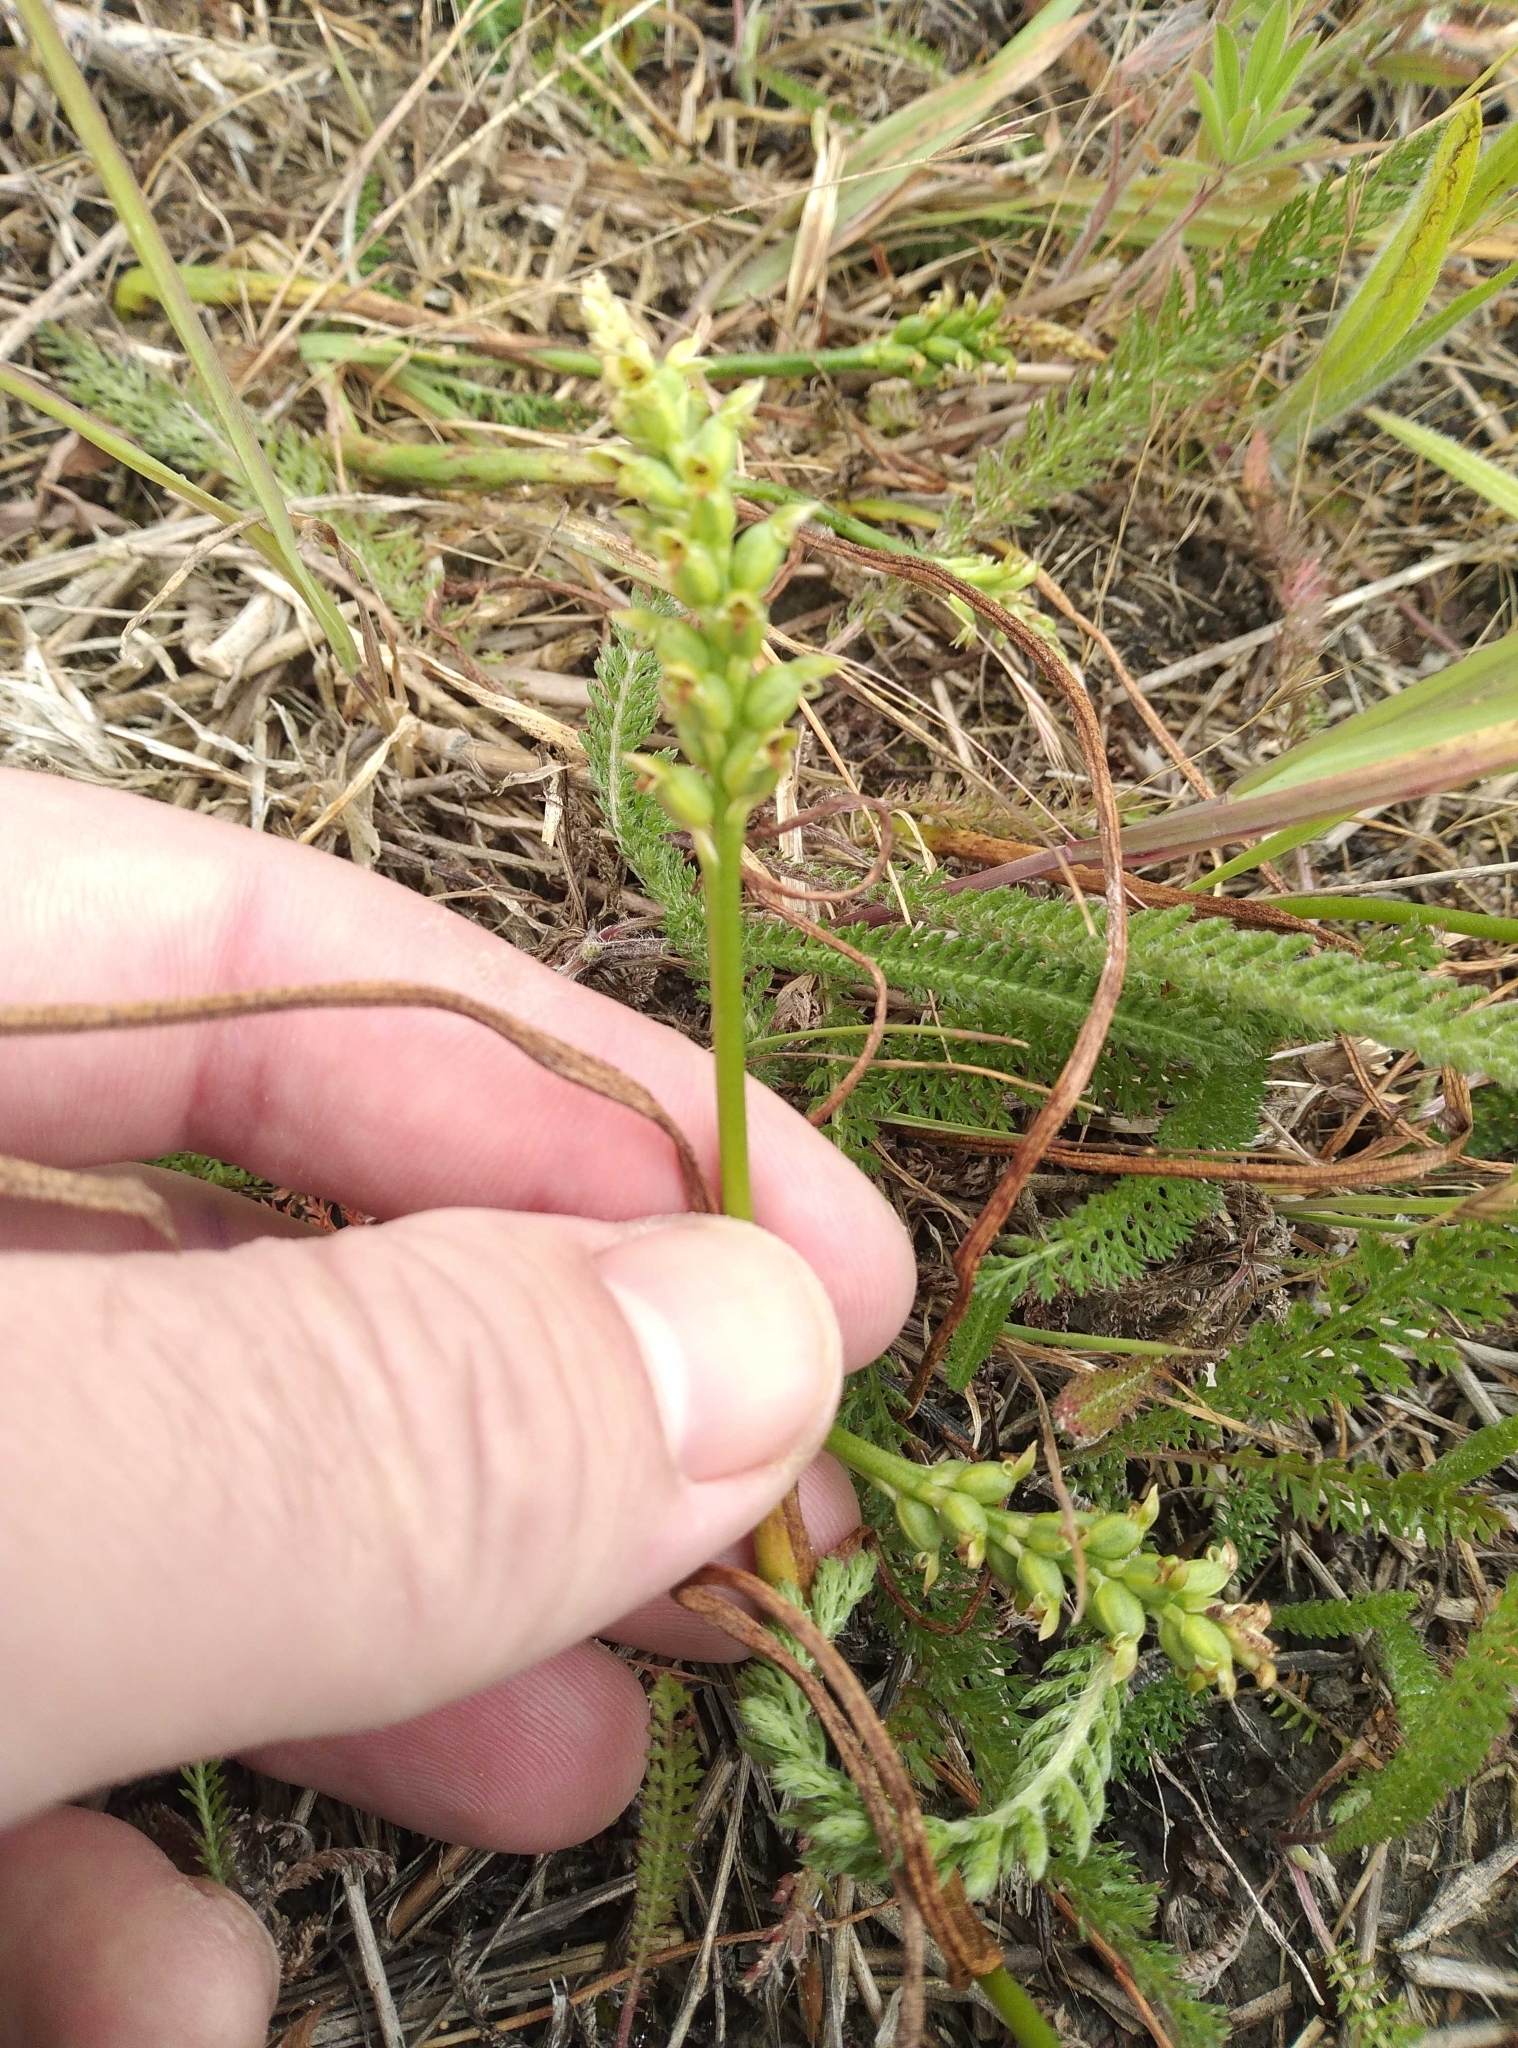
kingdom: Plantae
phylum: Tracheophyta
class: Liliopsida
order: Asparagales
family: Orchidaceae
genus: Microtis
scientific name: Microtis unifolia
